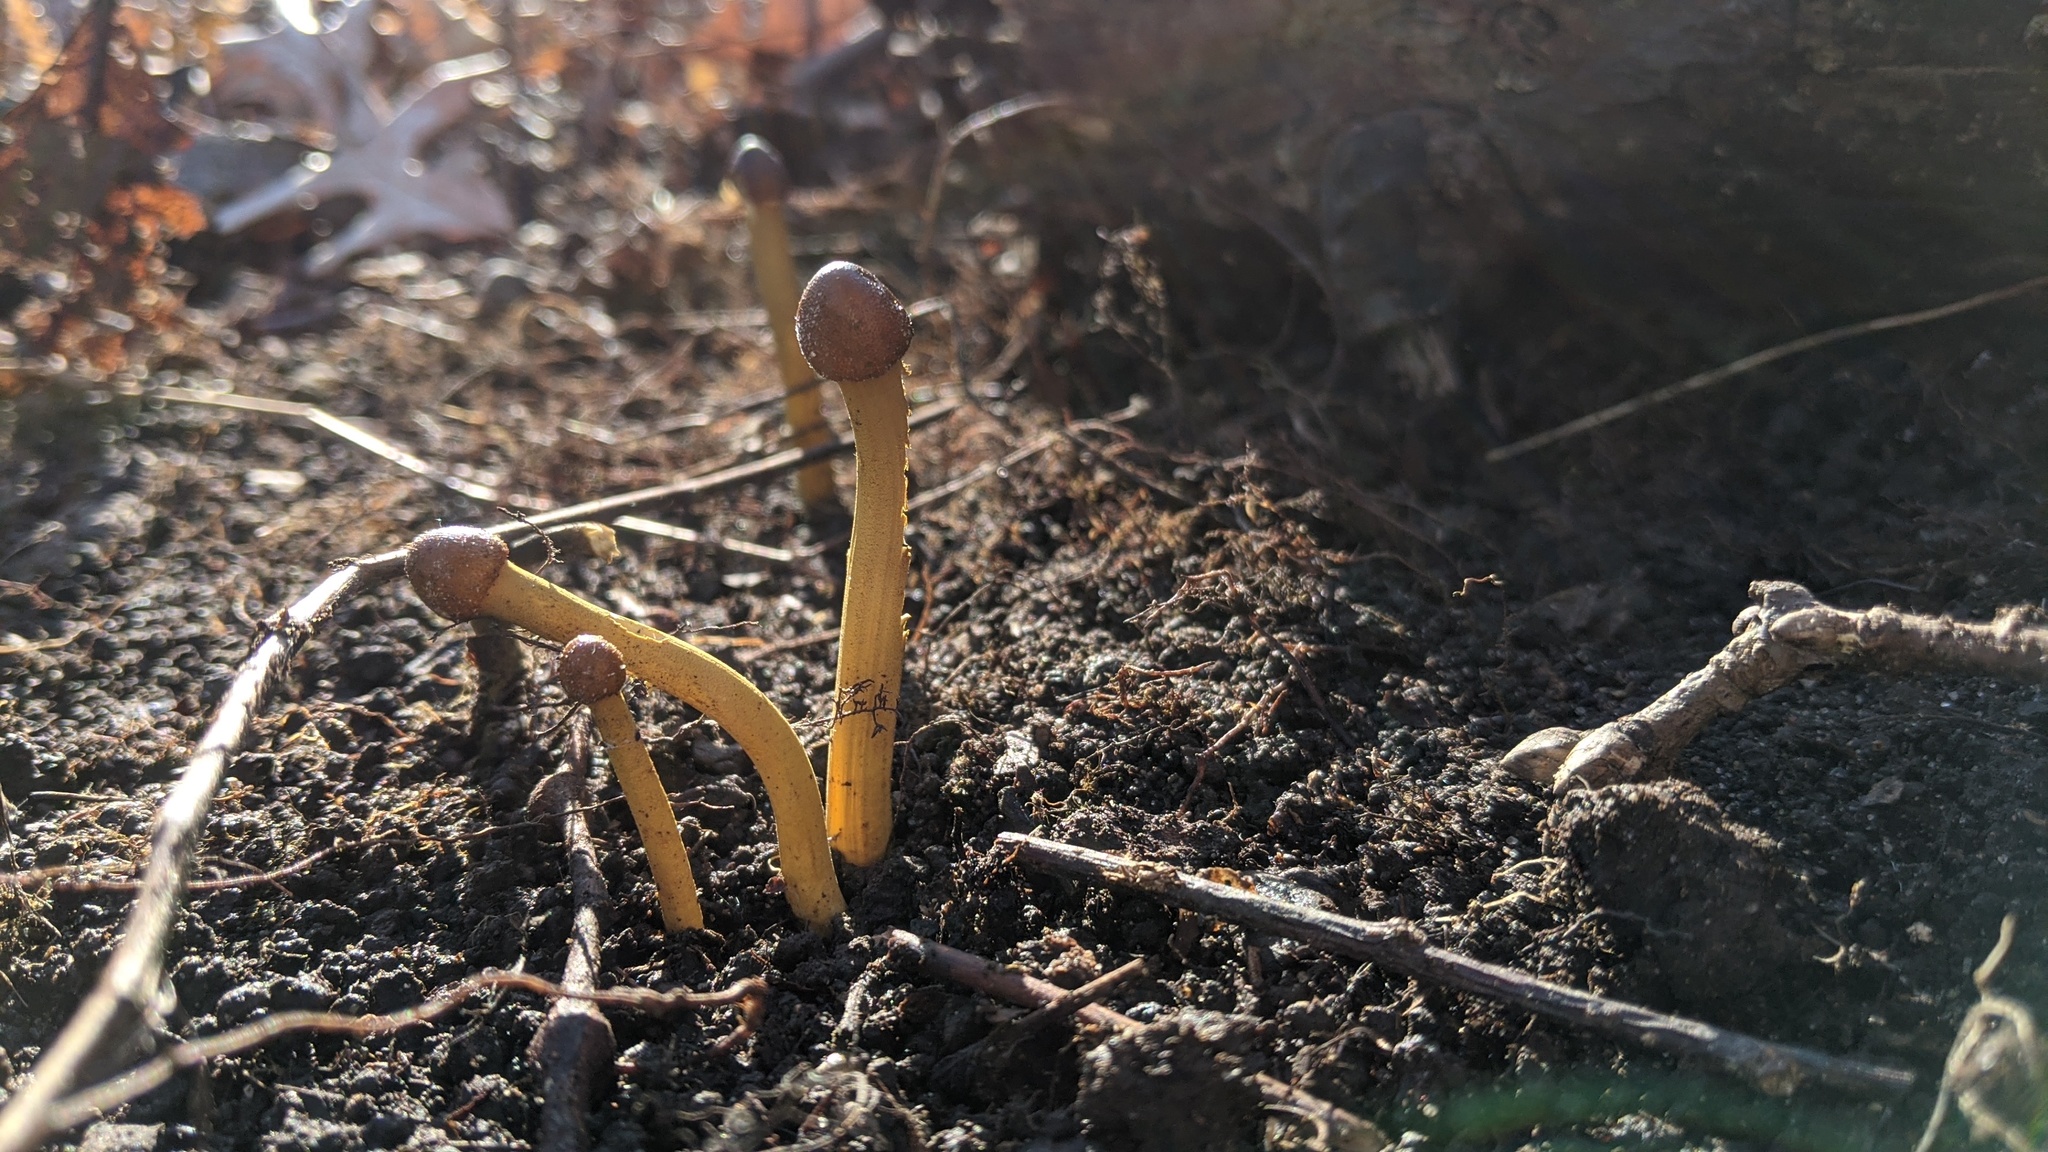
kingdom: Fungi
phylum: Ascomycota
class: Sordariomycetes
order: Hypocreales
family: Ophiocordycipitaceae
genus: Tolypocladium
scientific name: Tolypocladium capitatum
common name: Capitate truffleclub
